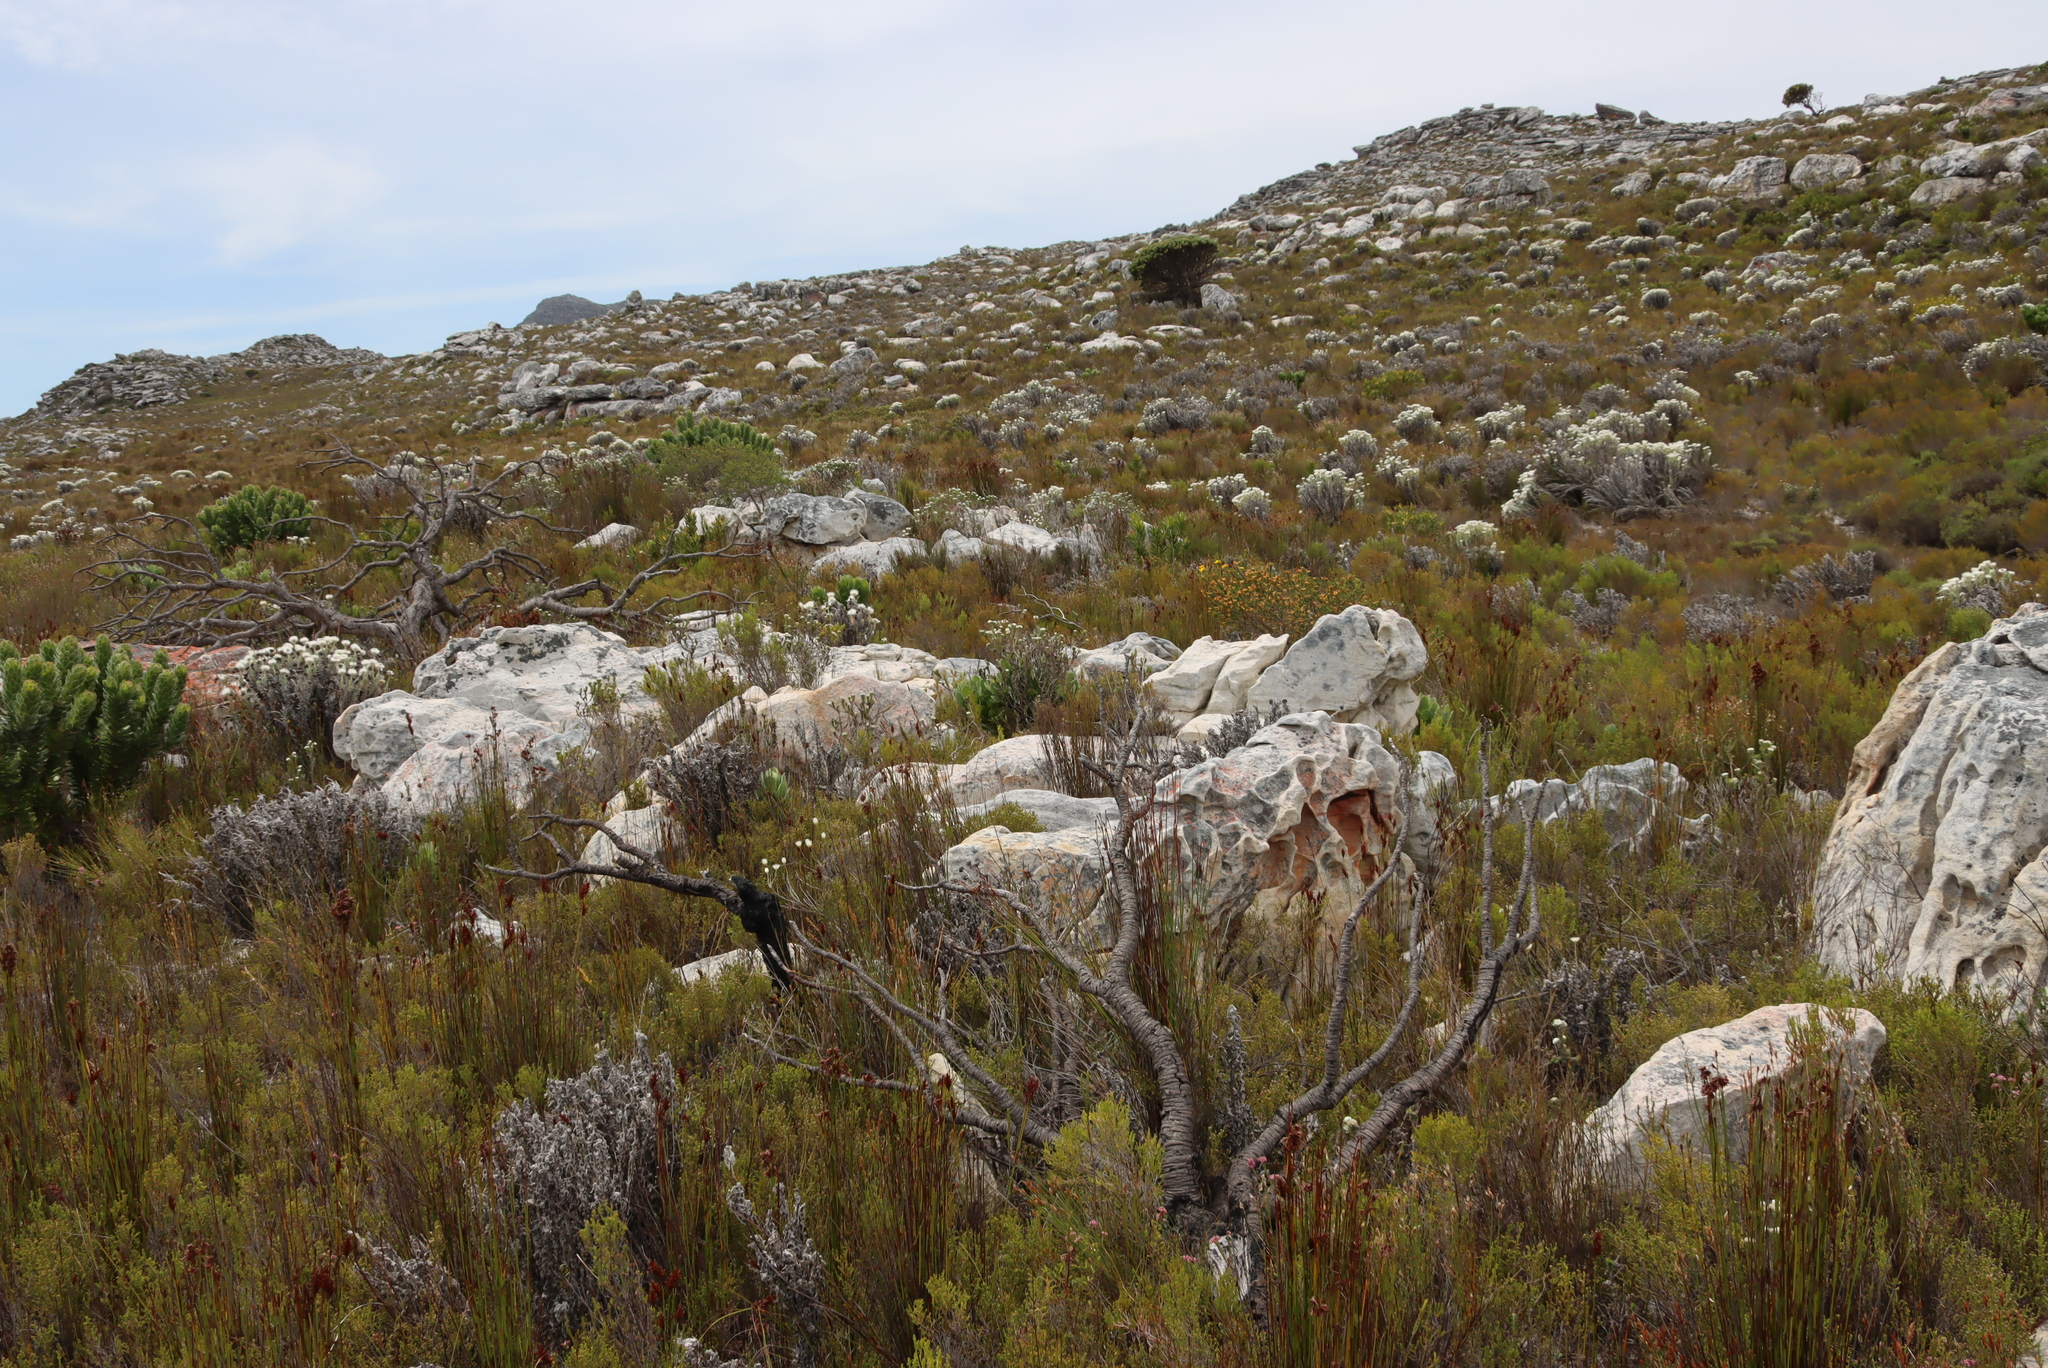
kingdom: Plantae
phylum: Tracheophyta
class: Magnoliopsida
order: Asterales
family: Asteraceae
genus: Metalasia
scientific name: Metalasia compacta
